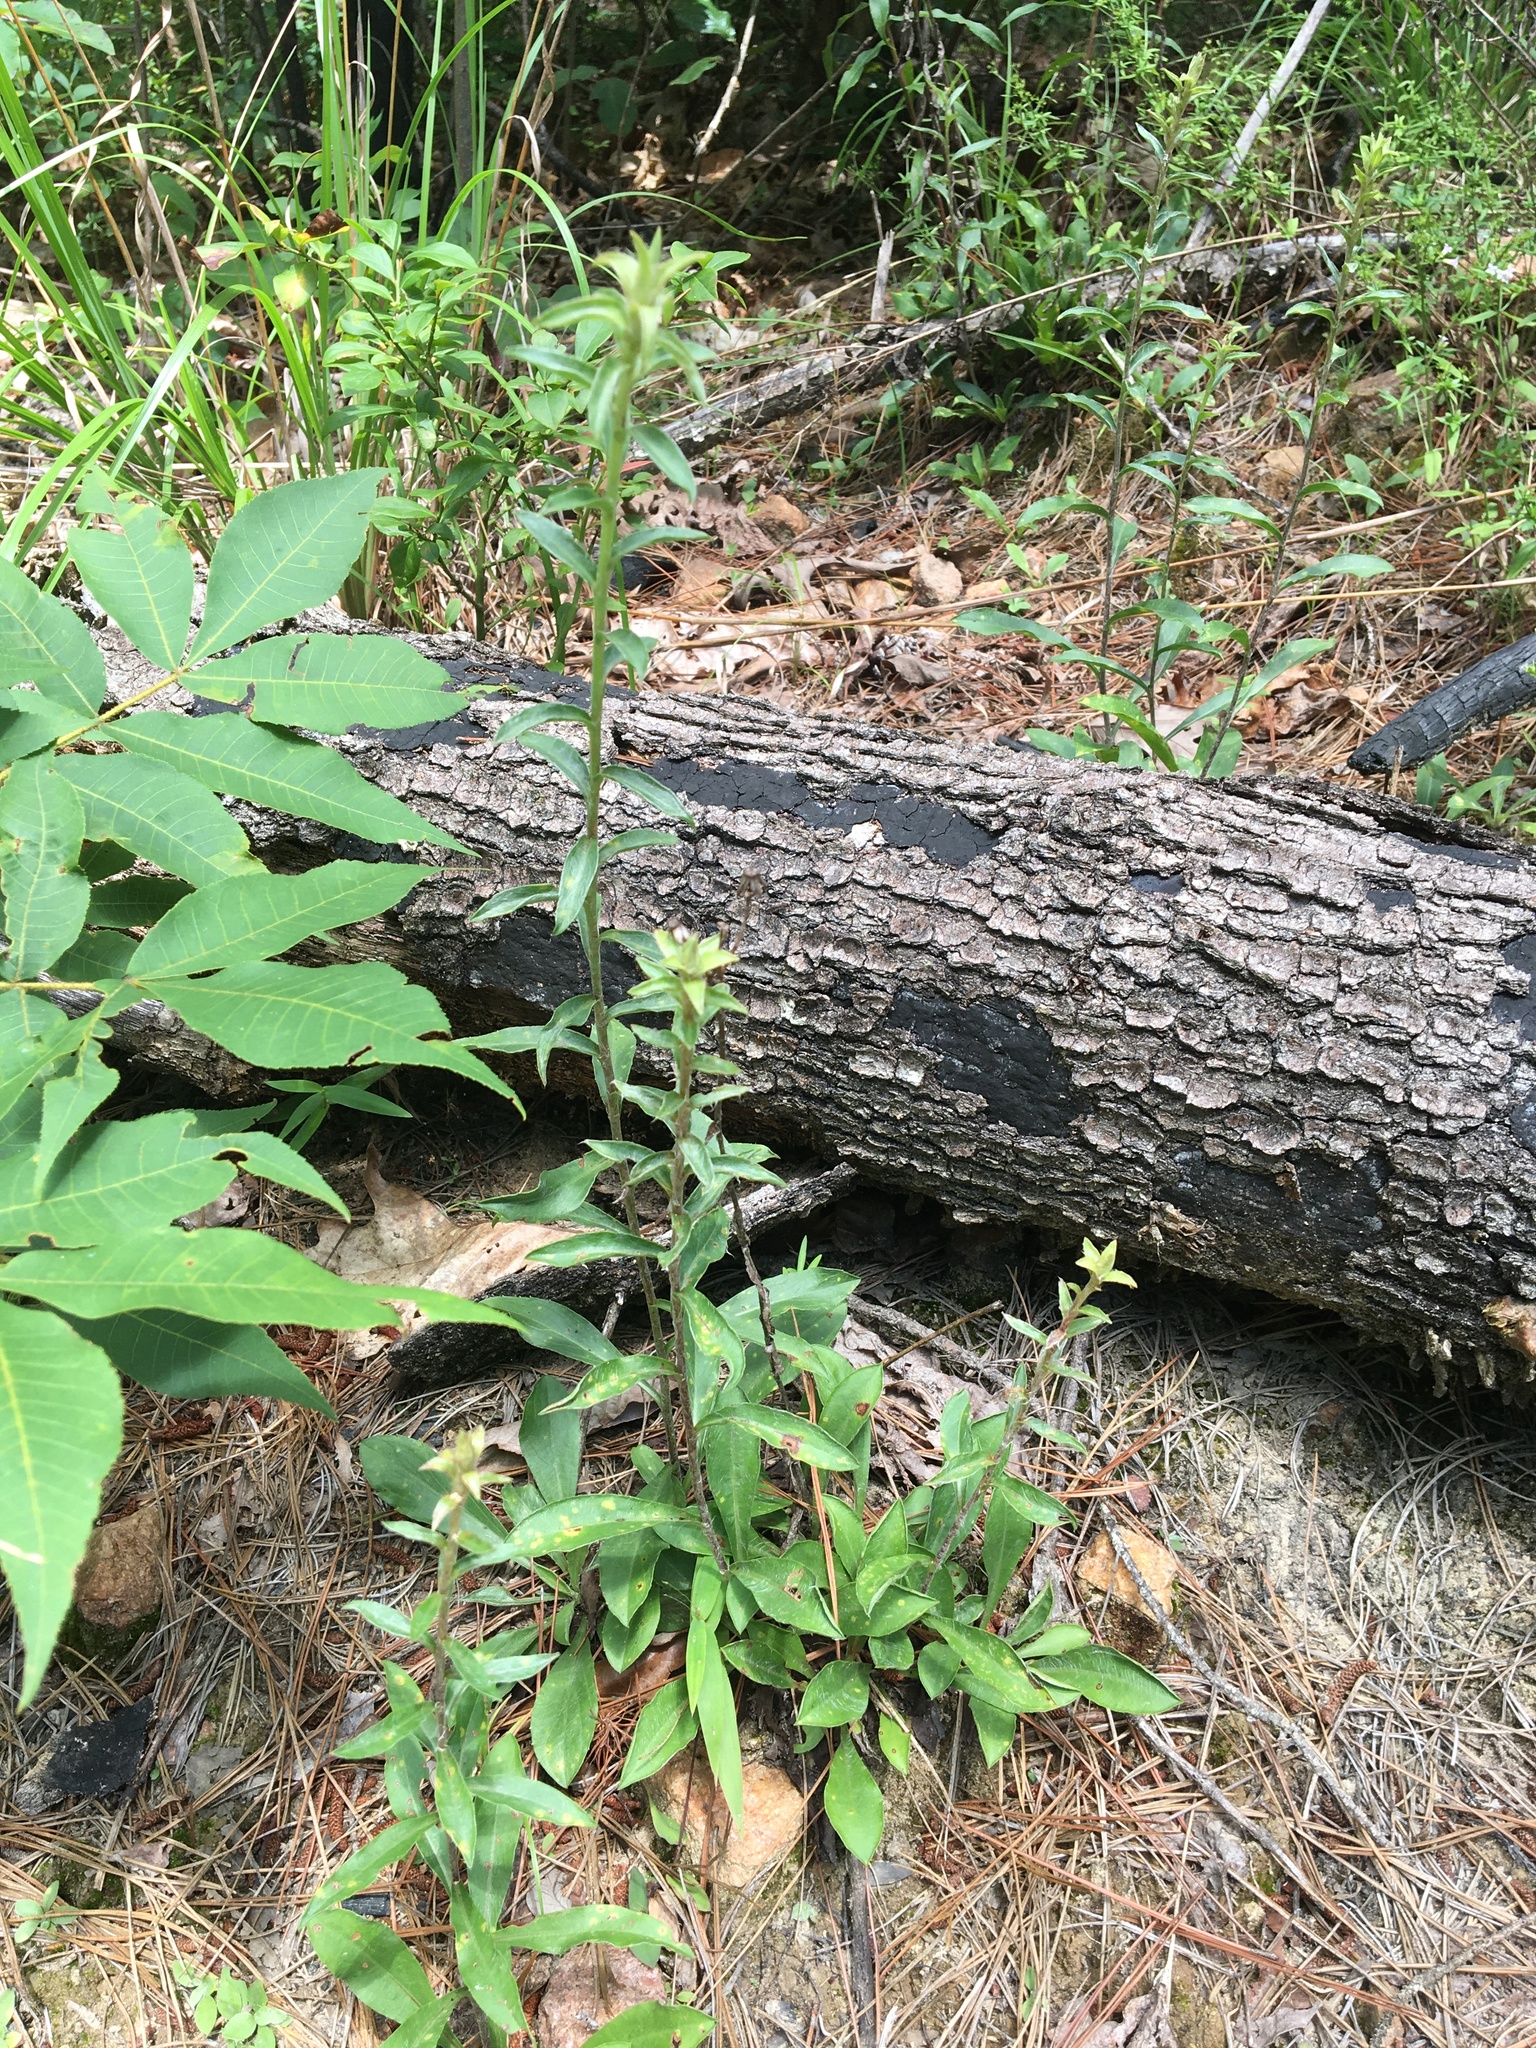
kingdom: Plantae
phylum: Tracheophyta
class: Magnoliopsida
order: Asterales
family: Asteraceae
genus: Chrysopsis
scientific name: Chrysopsis mariana
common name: Maryland golden-aster
